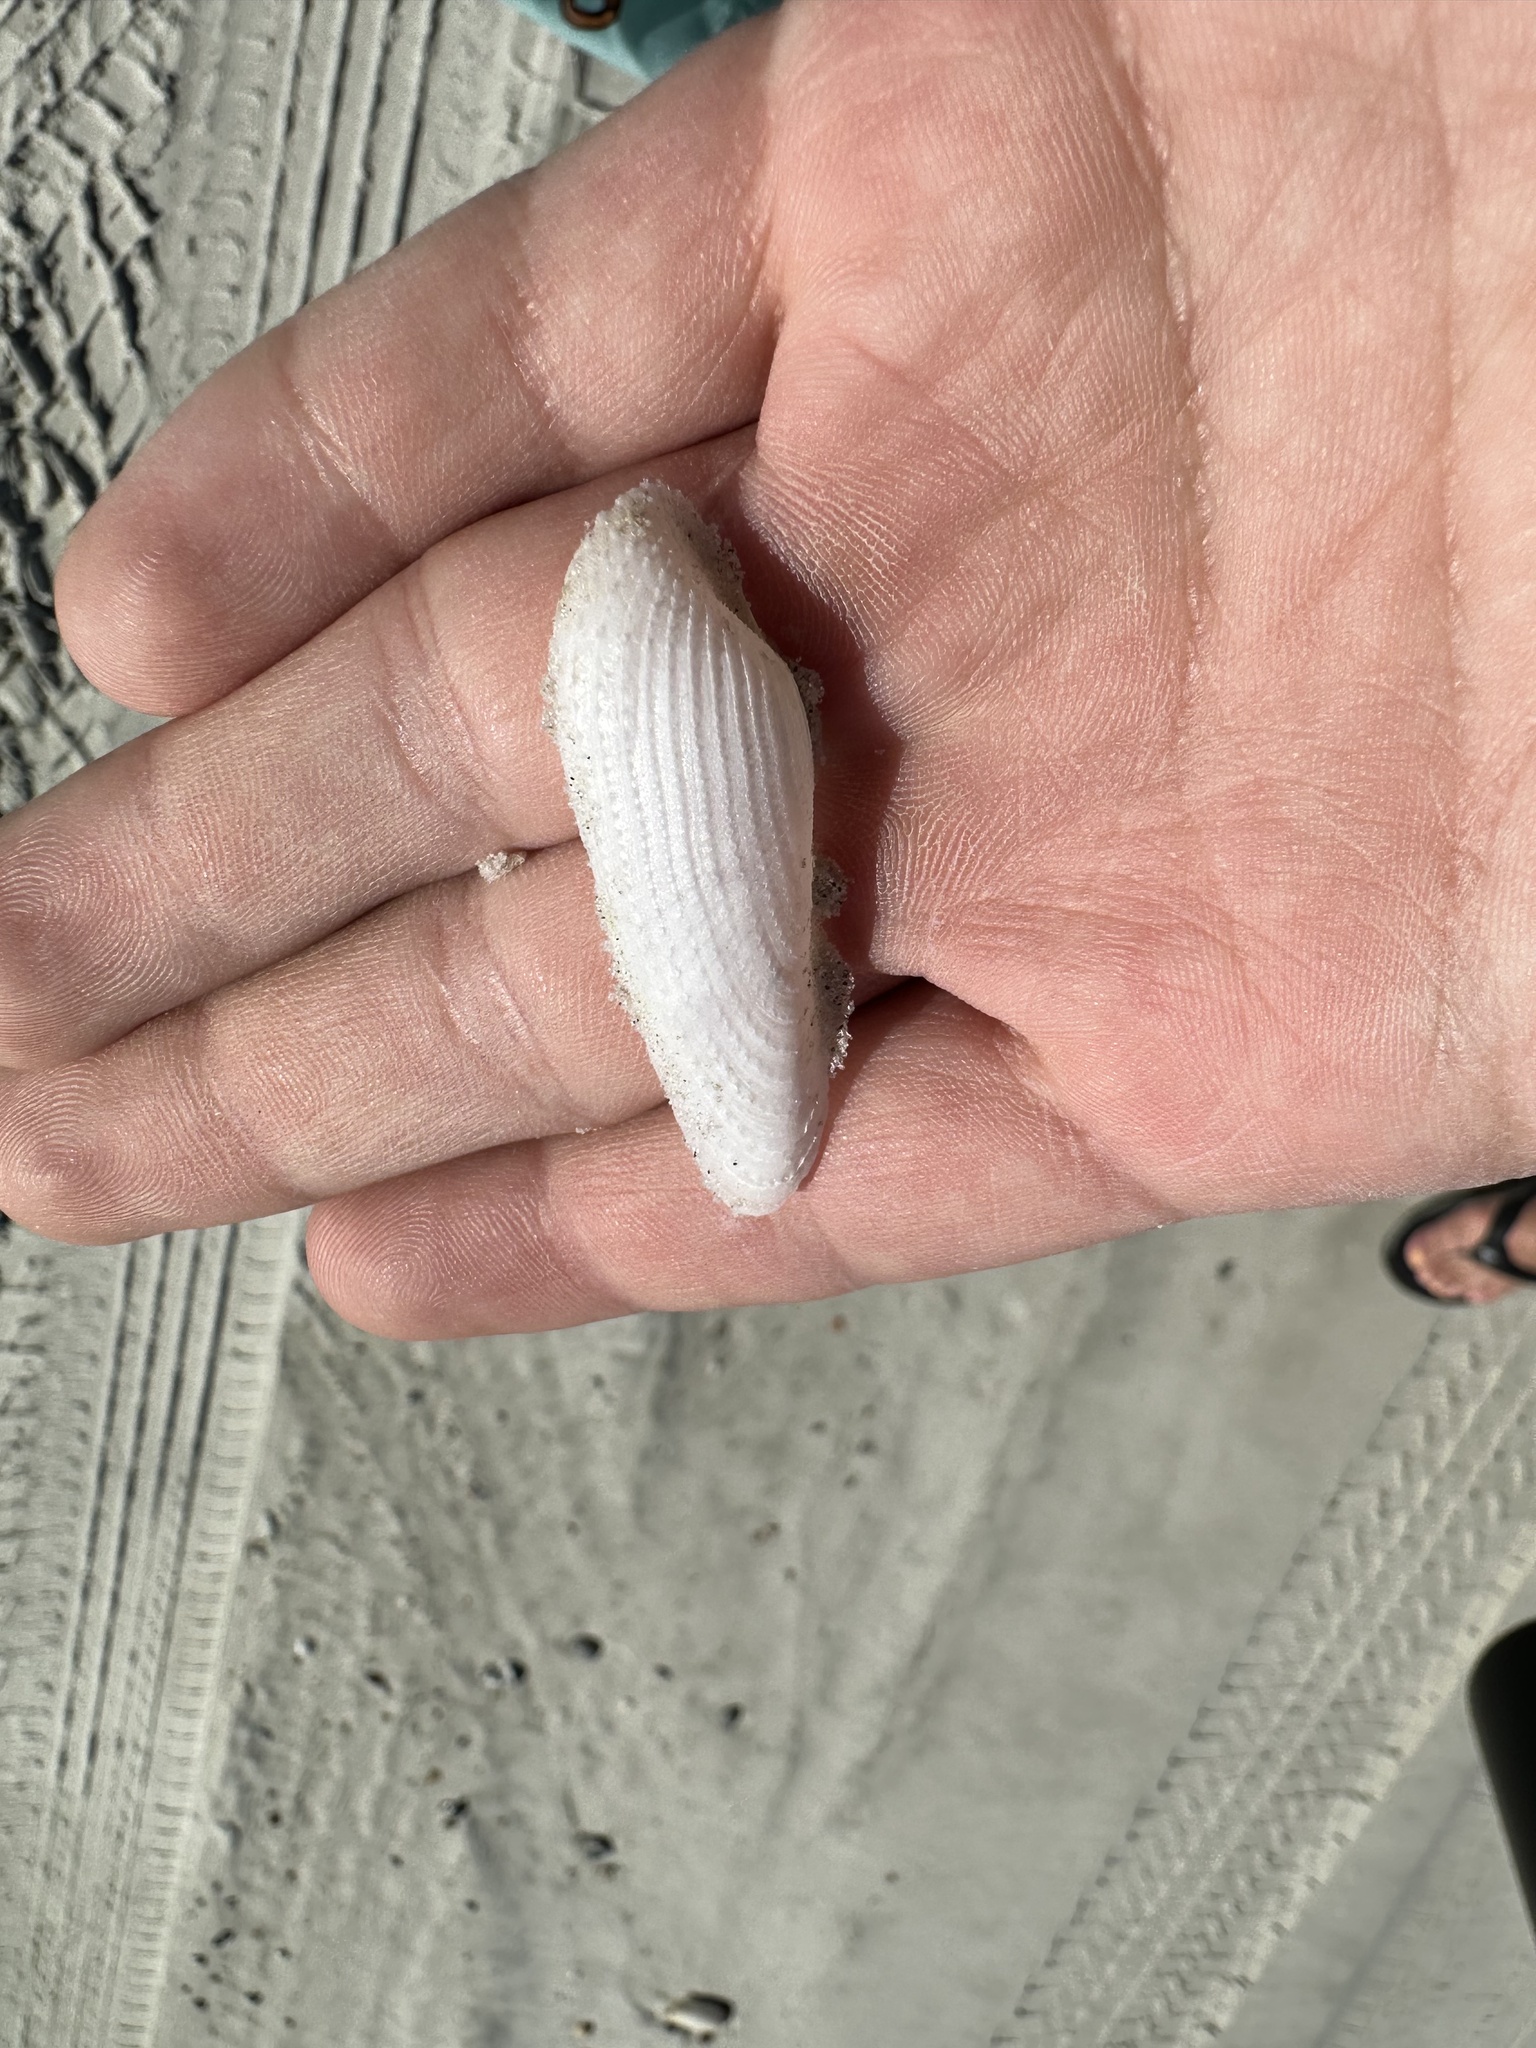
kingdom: Animalia
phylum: Mollusca
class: Bivalvia
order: Myida
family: Pholadidae
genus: Pholas
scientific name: Pholas campechiensis
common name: Campeche angel wing
